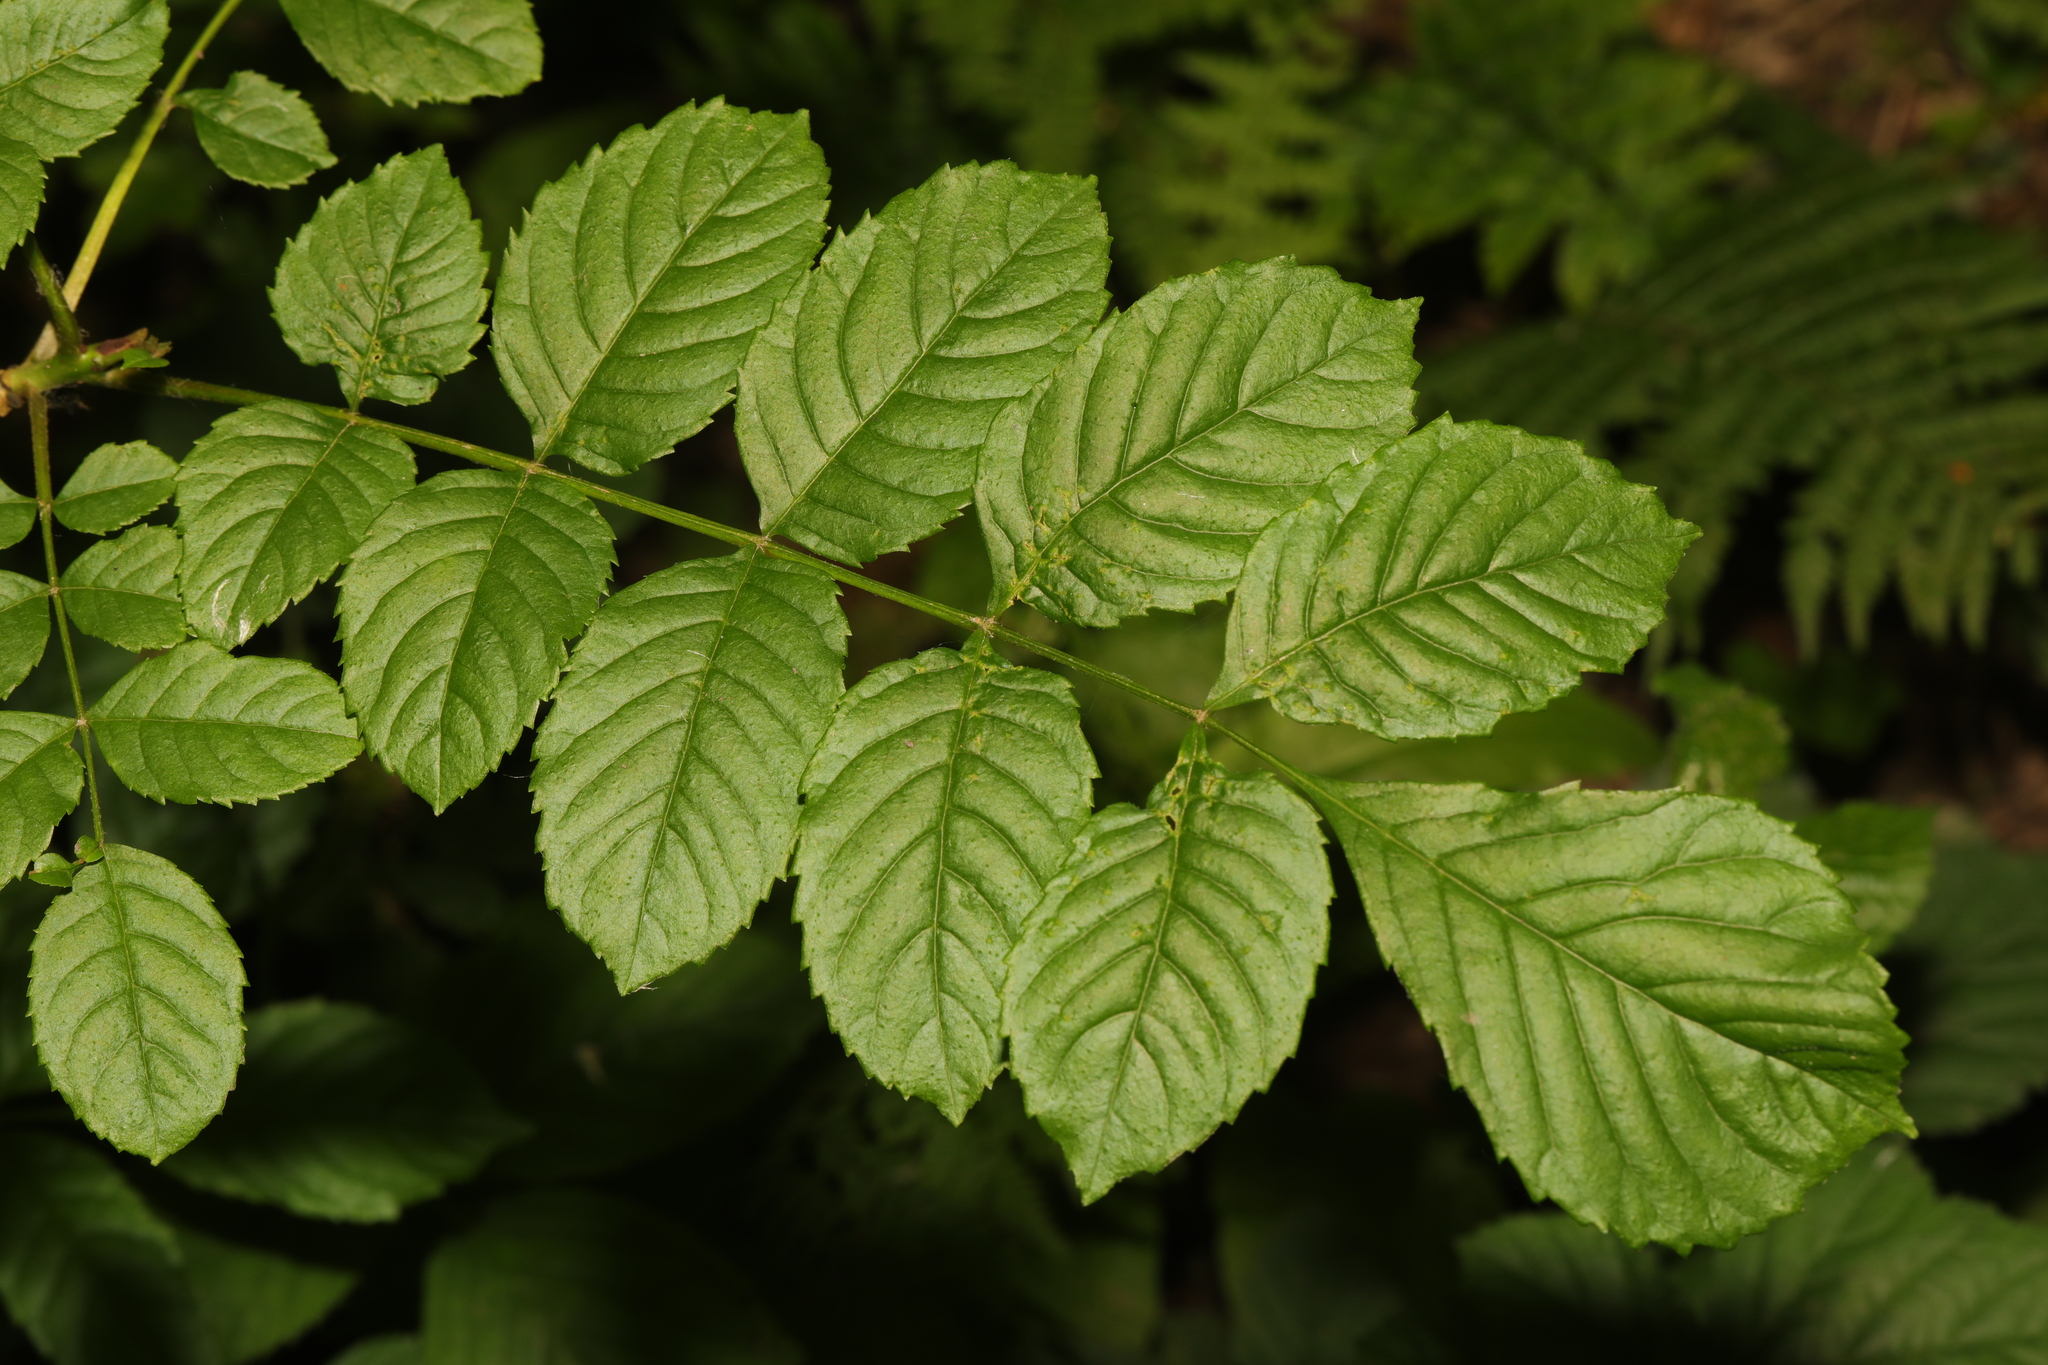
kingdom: Plantae
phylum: Tracheophyta
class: Magnoliopsida
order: Lamiales
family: Oleaceae
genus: Fraxinus
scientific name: Fraxinus excelsior
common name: European ash
